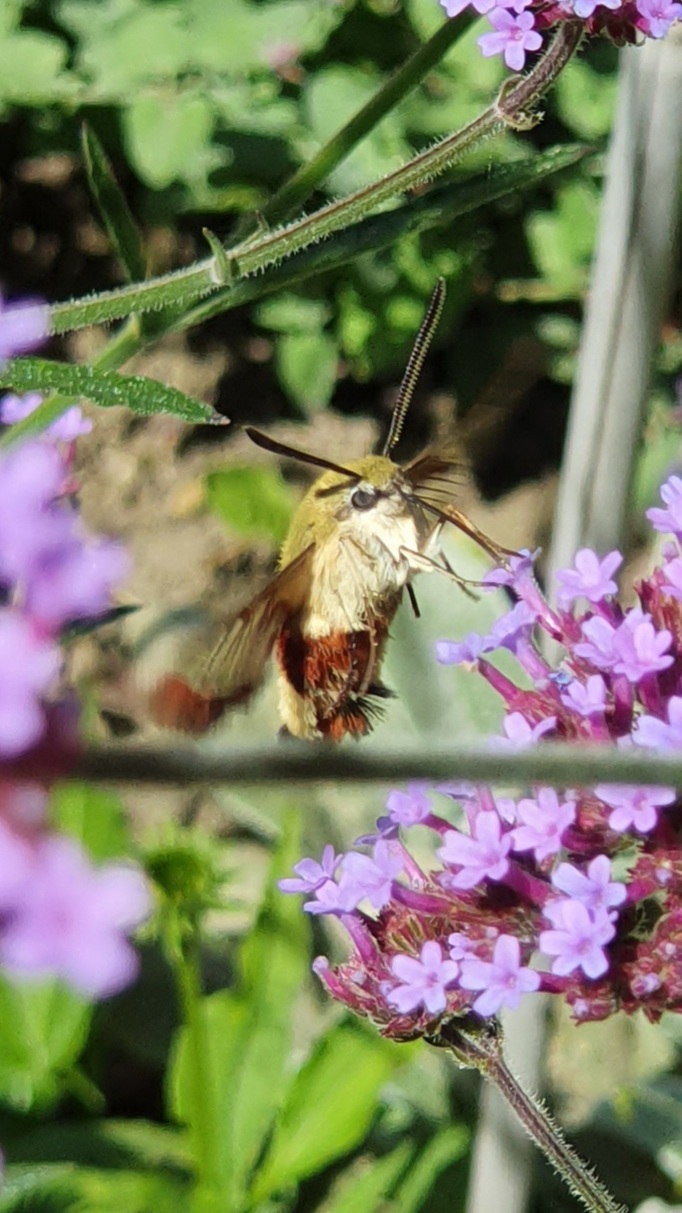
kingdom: Animalia
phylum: Arthropoda
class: Insecta
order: Lepidoptera
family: Sphingidae
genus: Hemaris
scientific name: Hemaris fuciformis
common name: Broad-bordered bee hawk-moth
